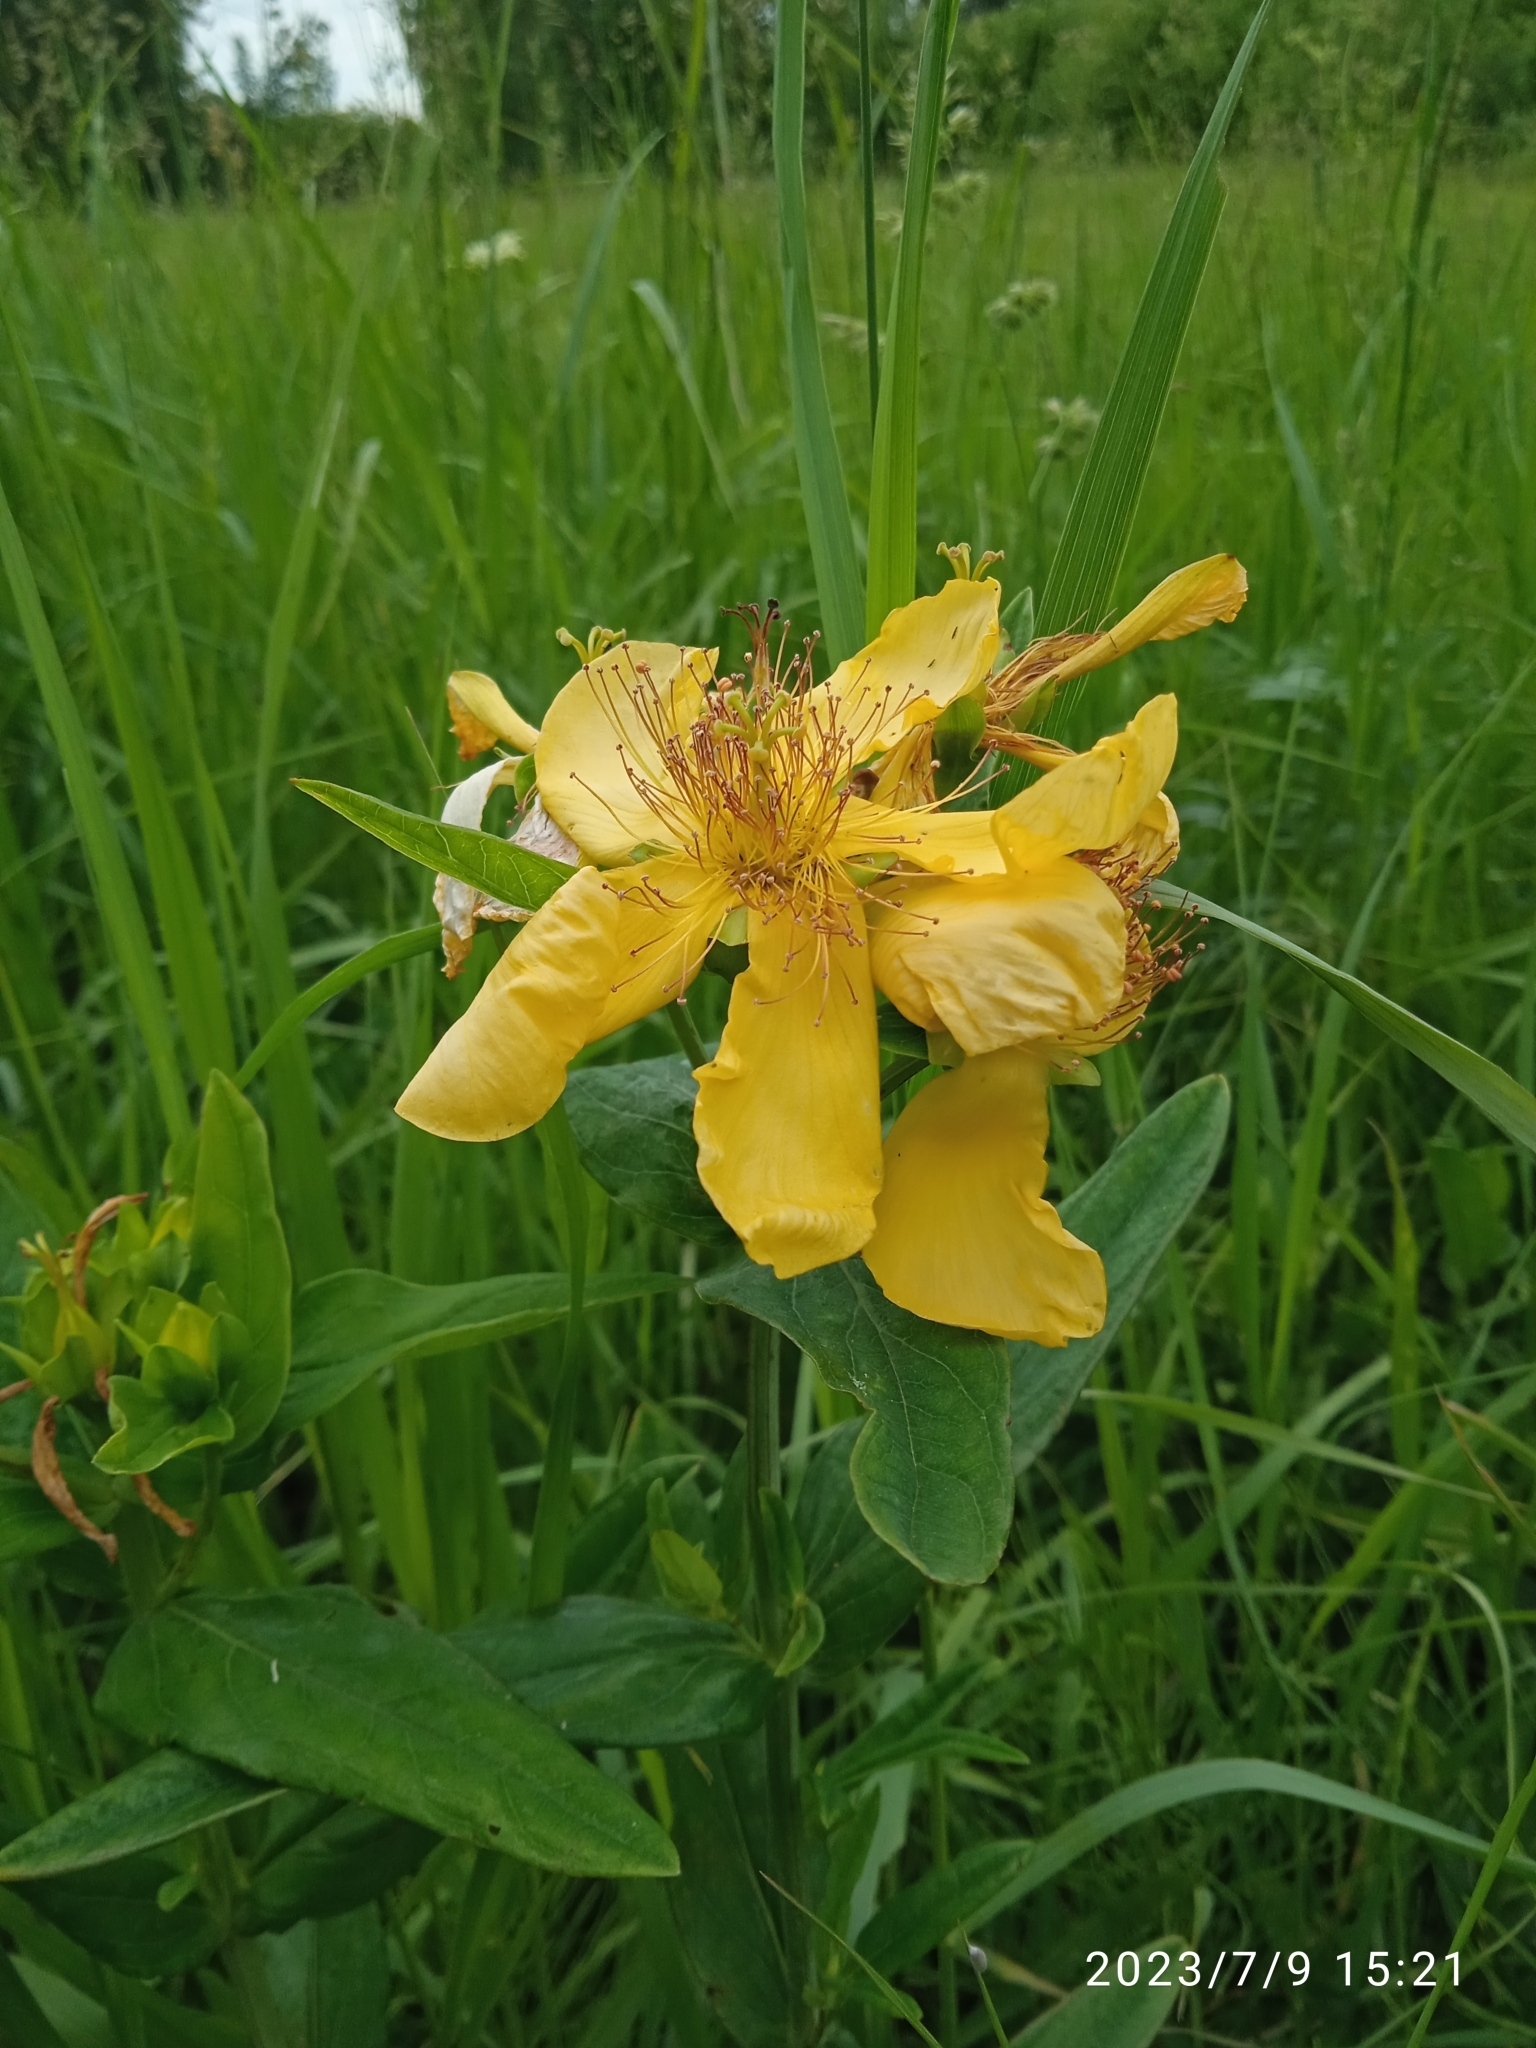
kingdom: Plantae
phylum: Tracheophyta
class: Magnoliopsida
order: Malpighiales
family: Hypericaceae
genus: Hypericum
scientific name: Hypericum ascyron
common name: Giant st. john's-wort
